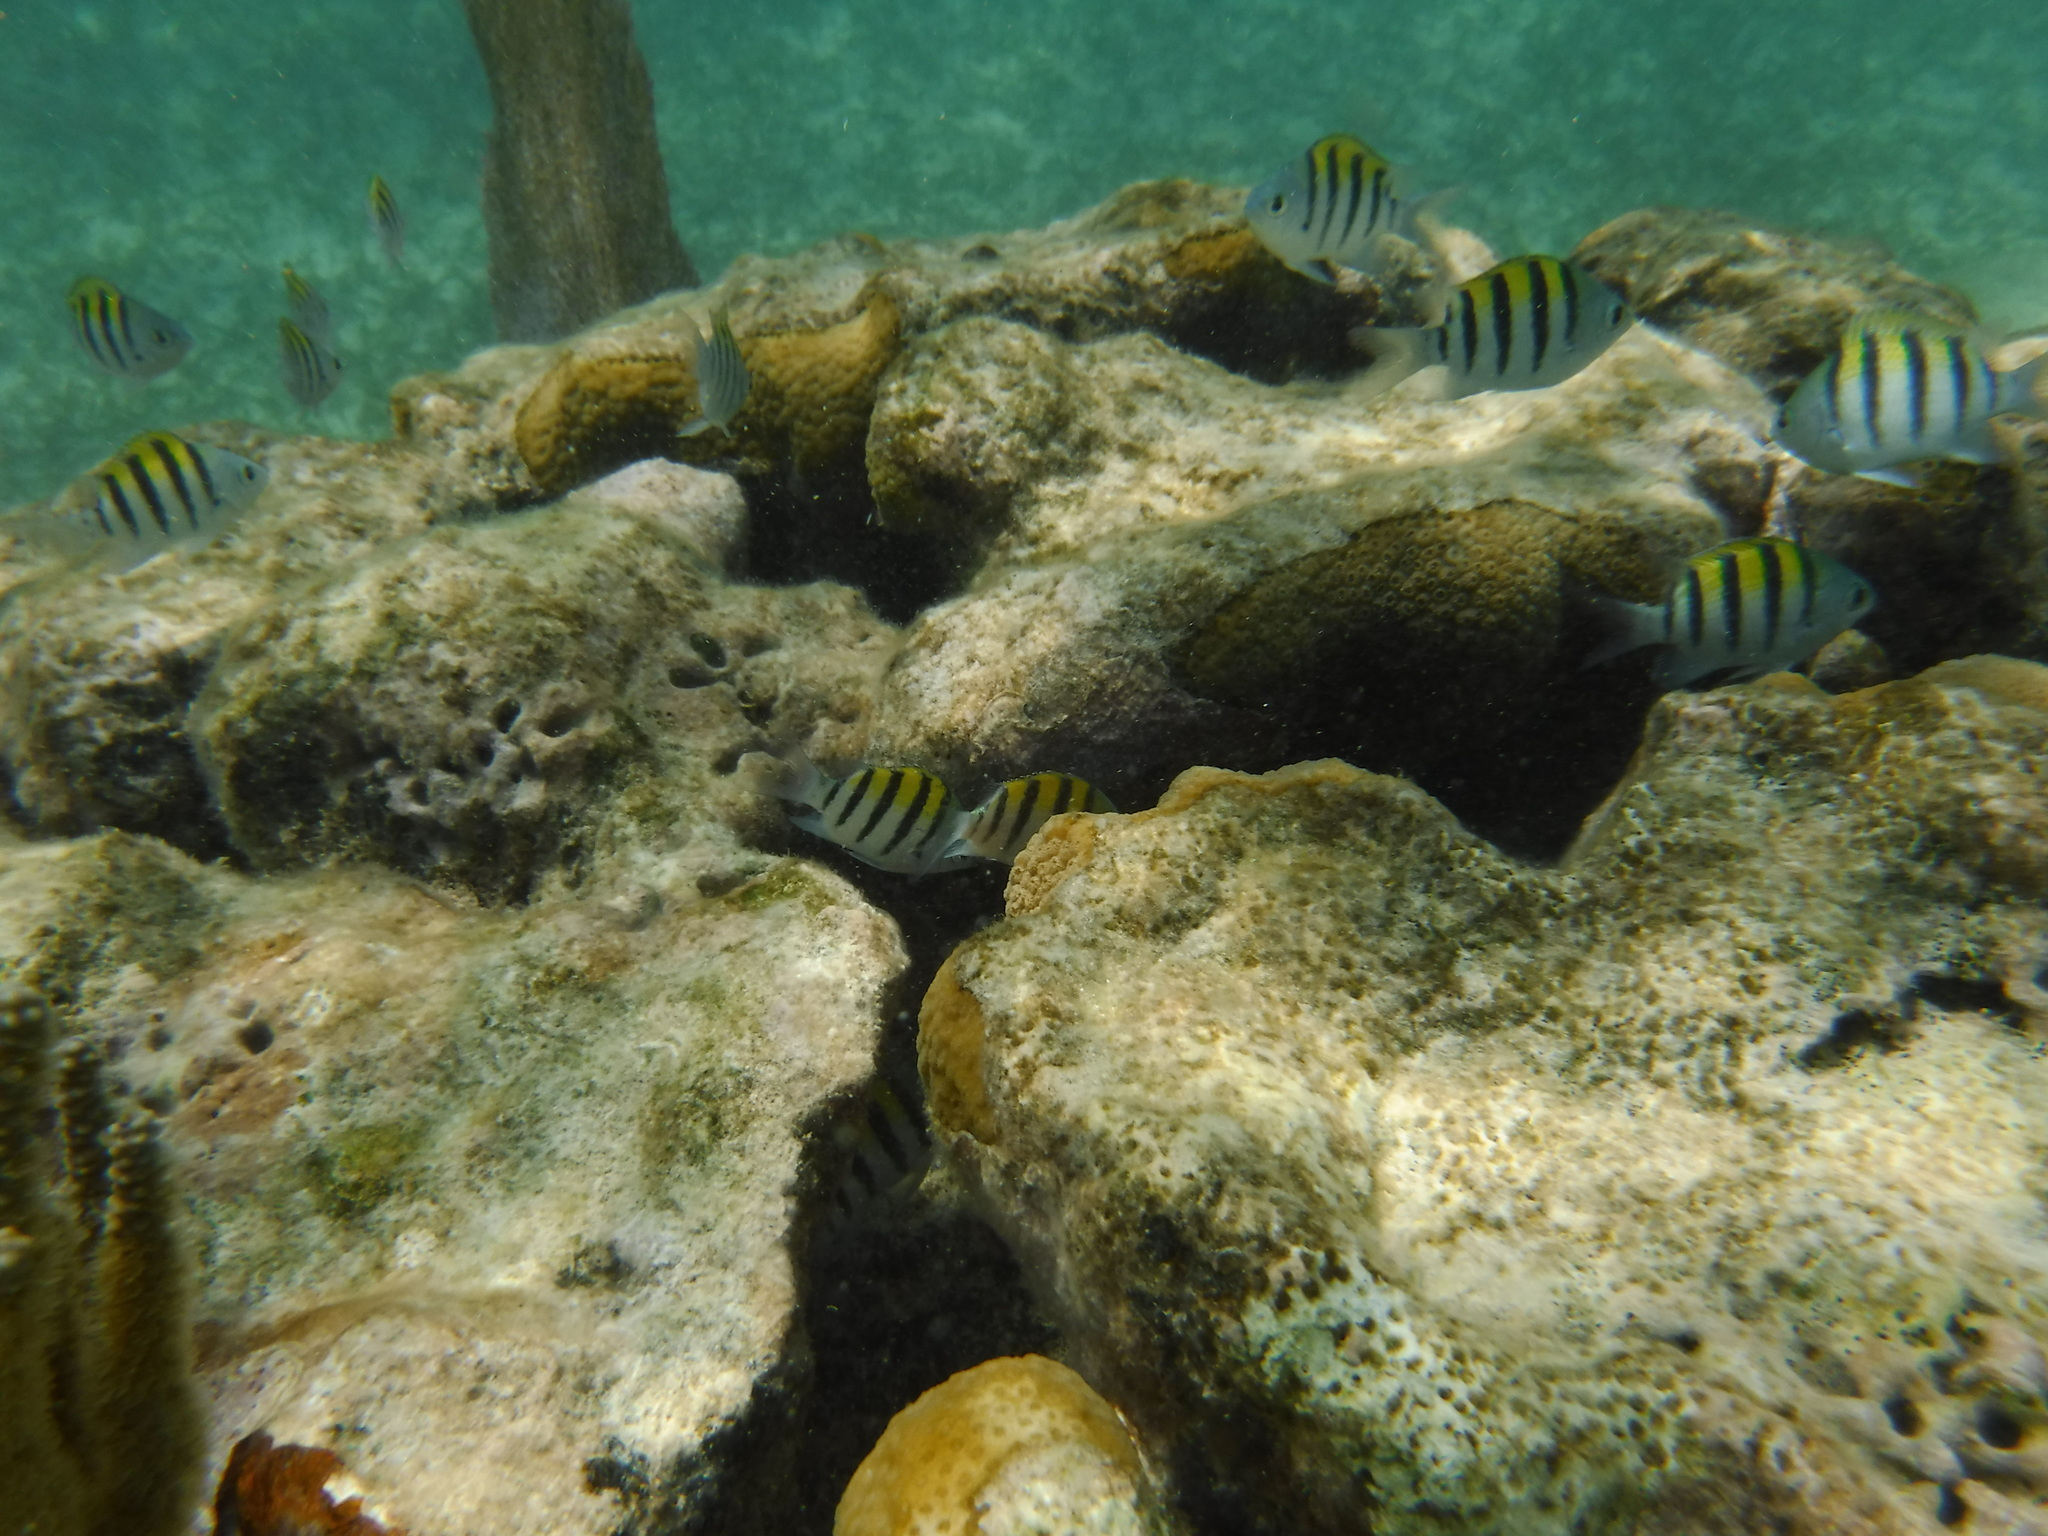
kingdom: Animalia
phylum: Chordata
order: Perciformes
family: Pomacentridae
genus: Abudefduf
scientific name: Abudefduf saxatilis
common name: Sergeant major
